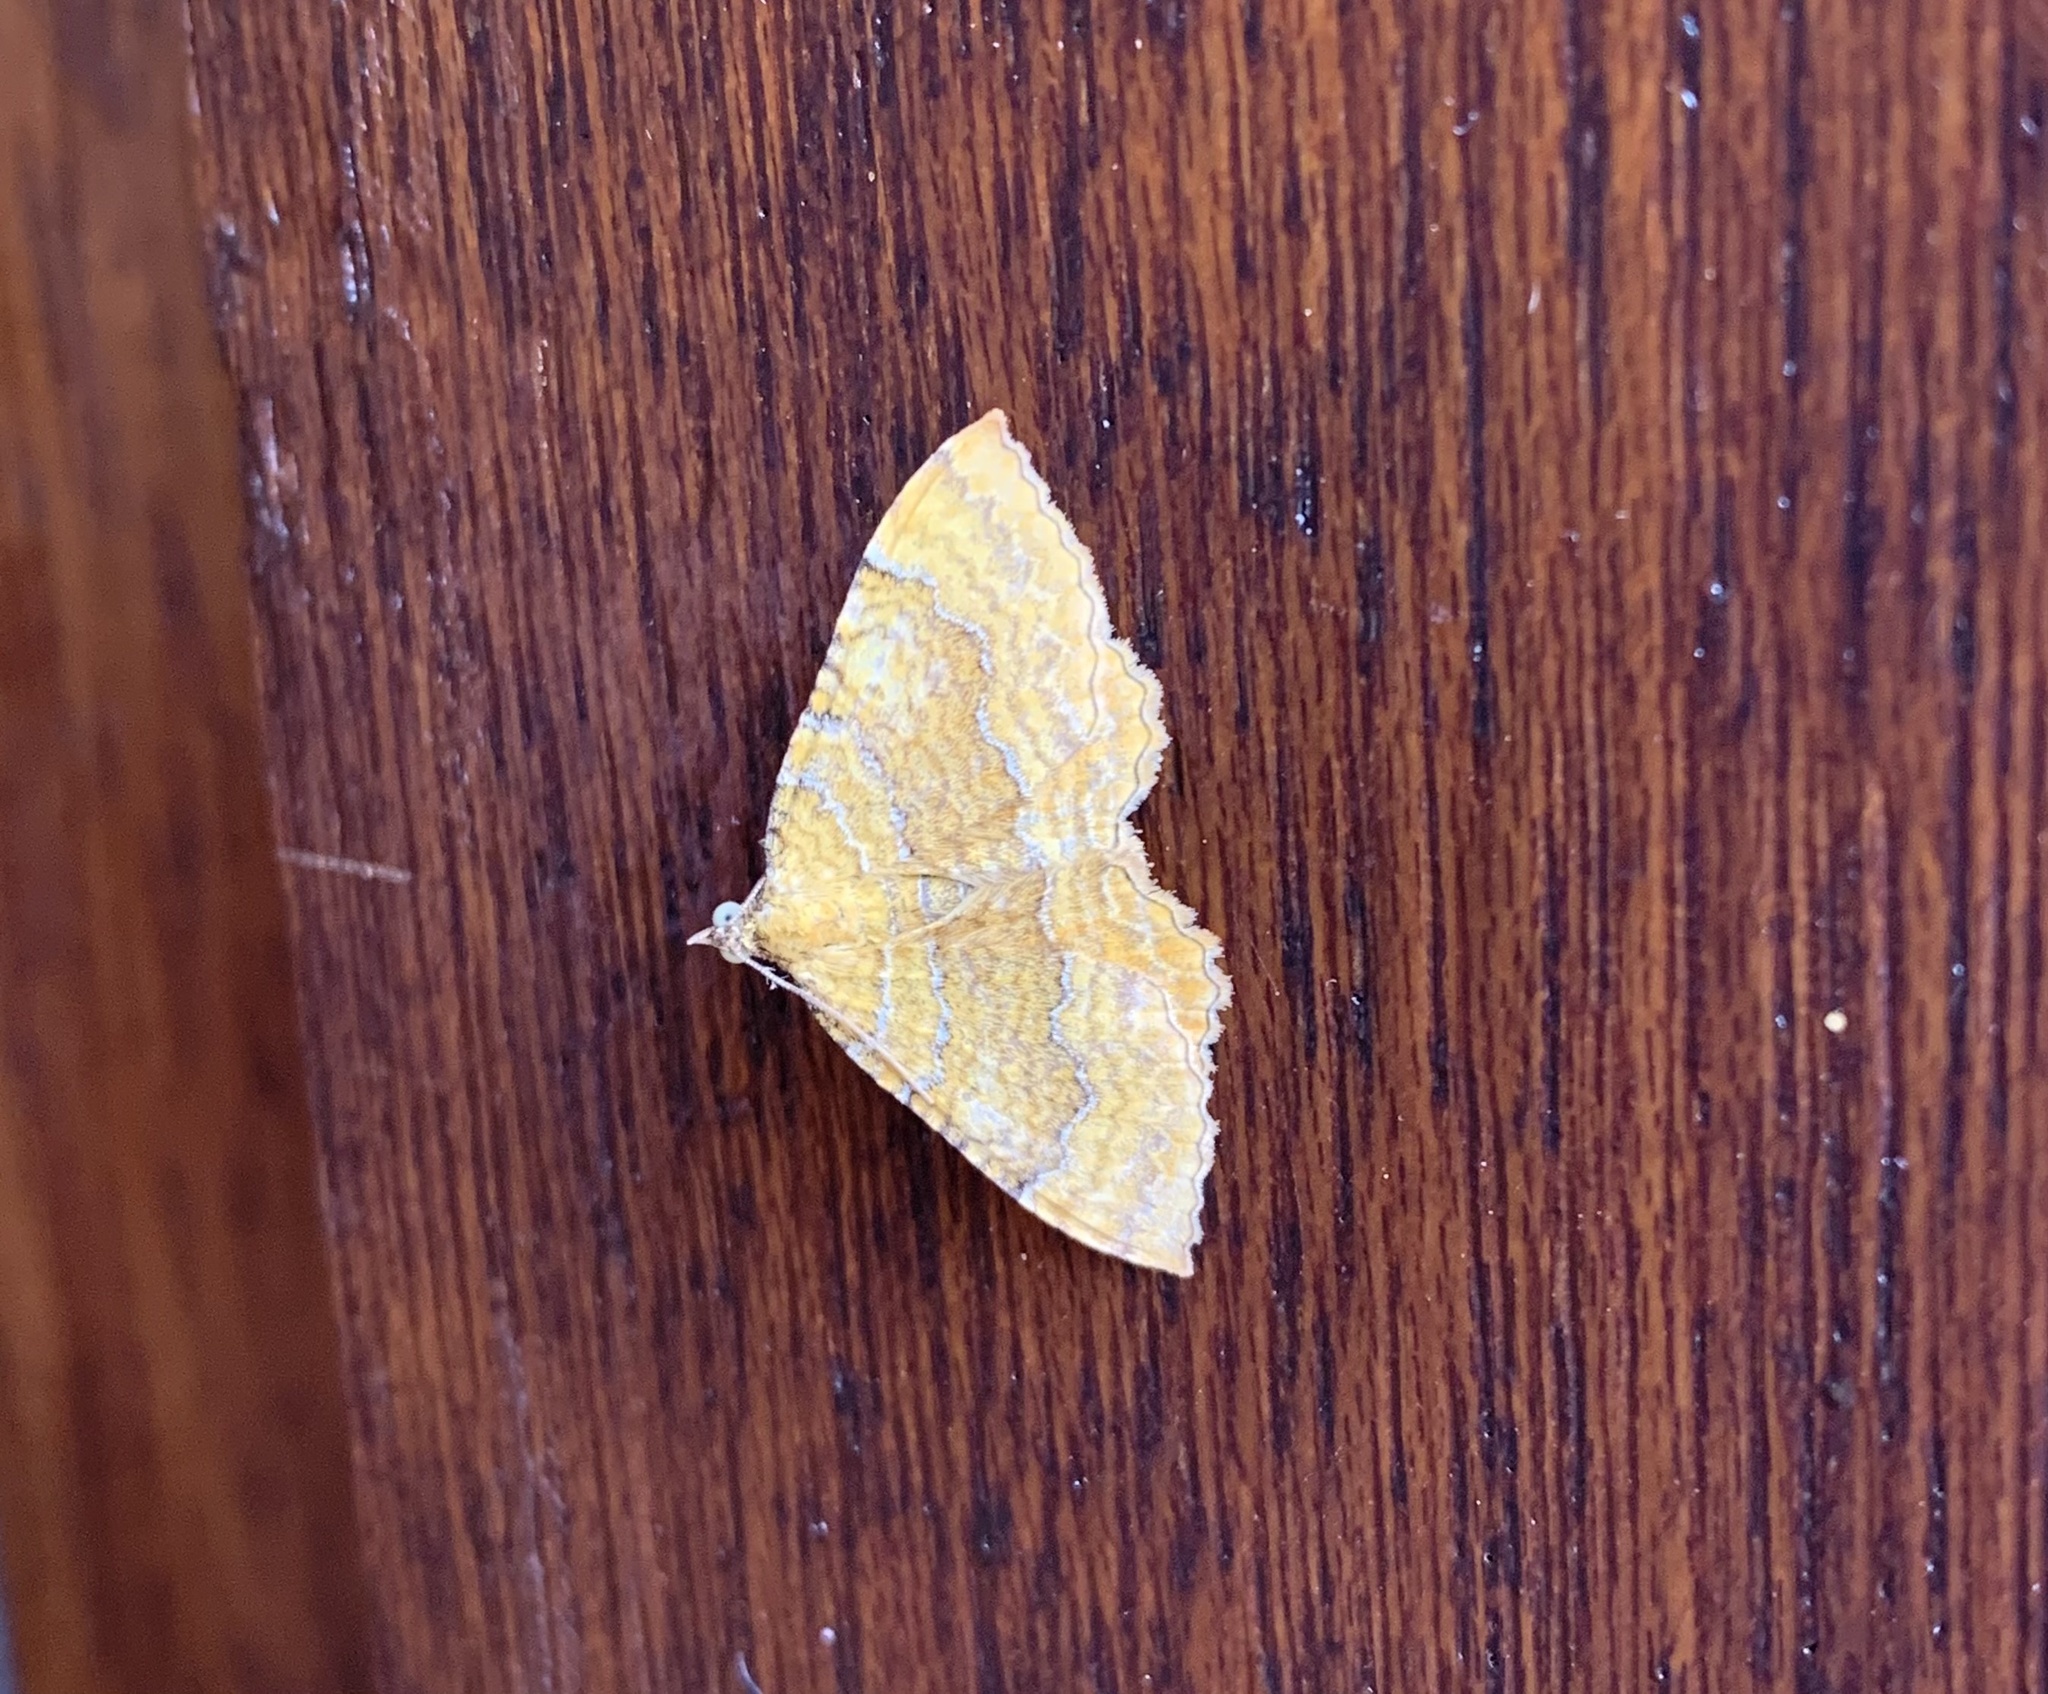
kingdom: Animalia
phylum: Arthropoda
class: Insecta
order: Lepidoptera
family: Geometridae
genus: Camptogramma
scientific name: Camptogramma bilineata
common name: Yellow shell
